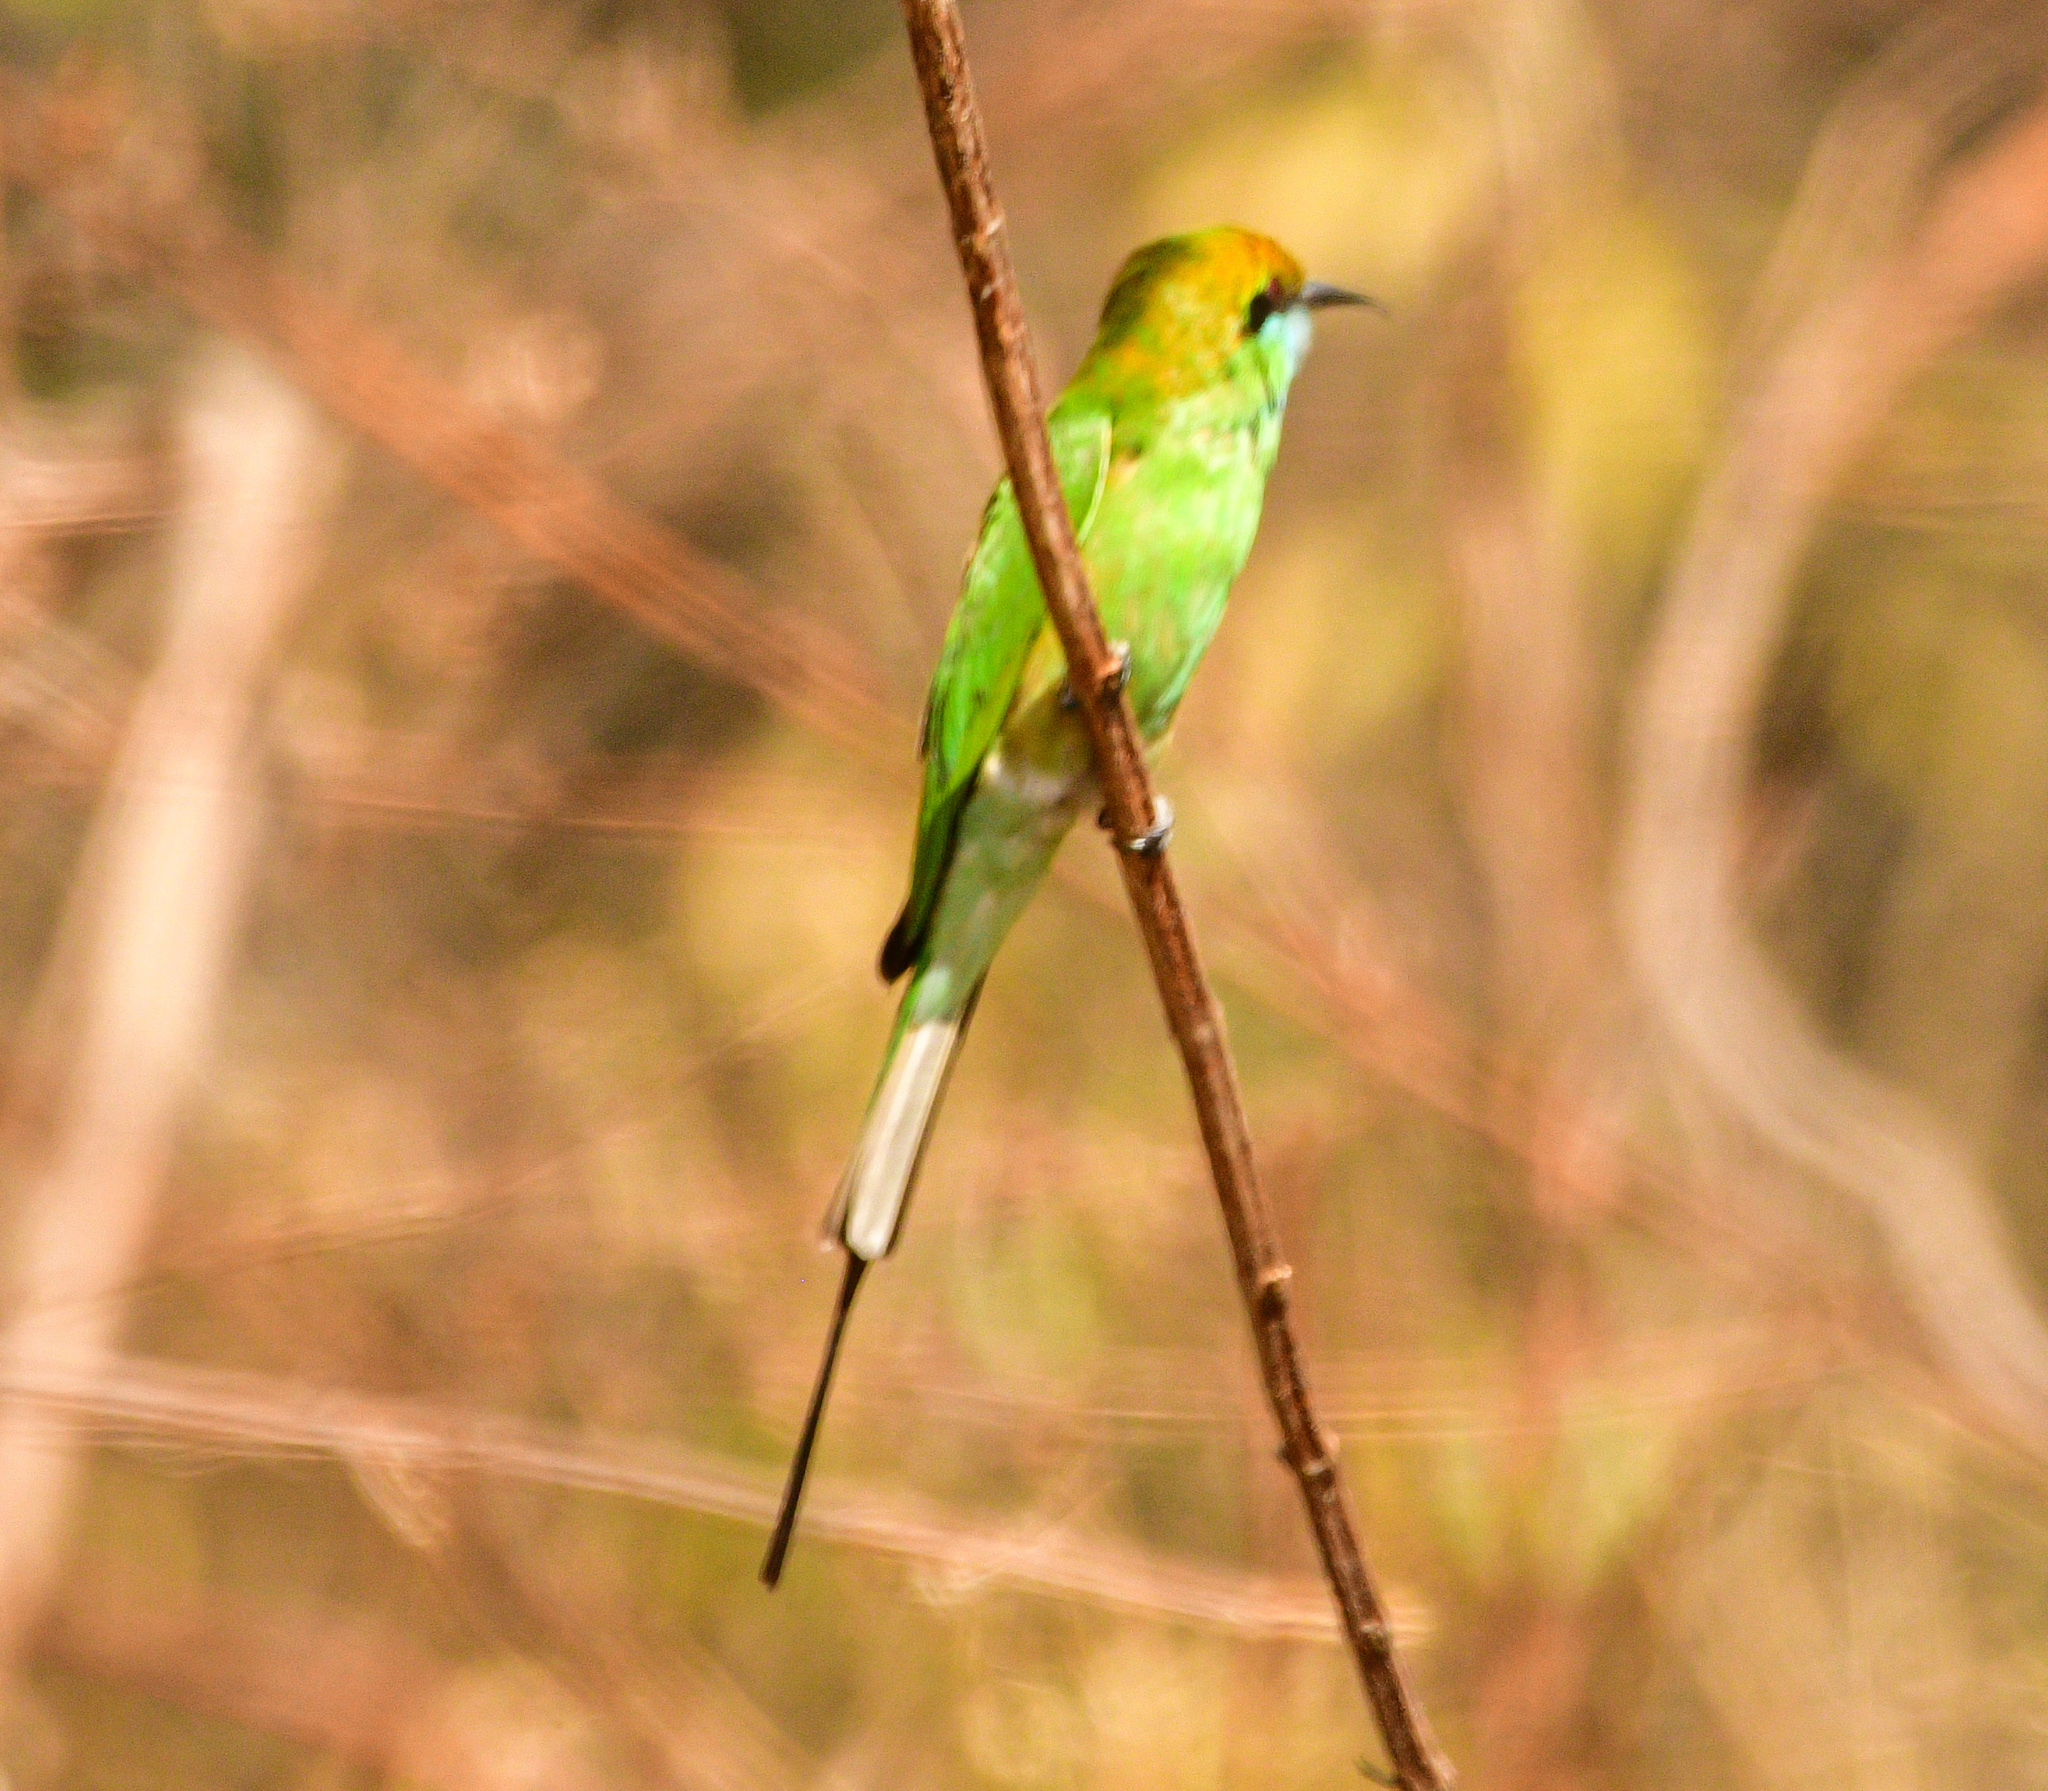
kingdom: Animalia
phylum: Chordata
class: Aves
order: Coraciiformes
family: Meropidae
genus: Merops
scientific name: Merops orientalis
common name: Green bee-eater
